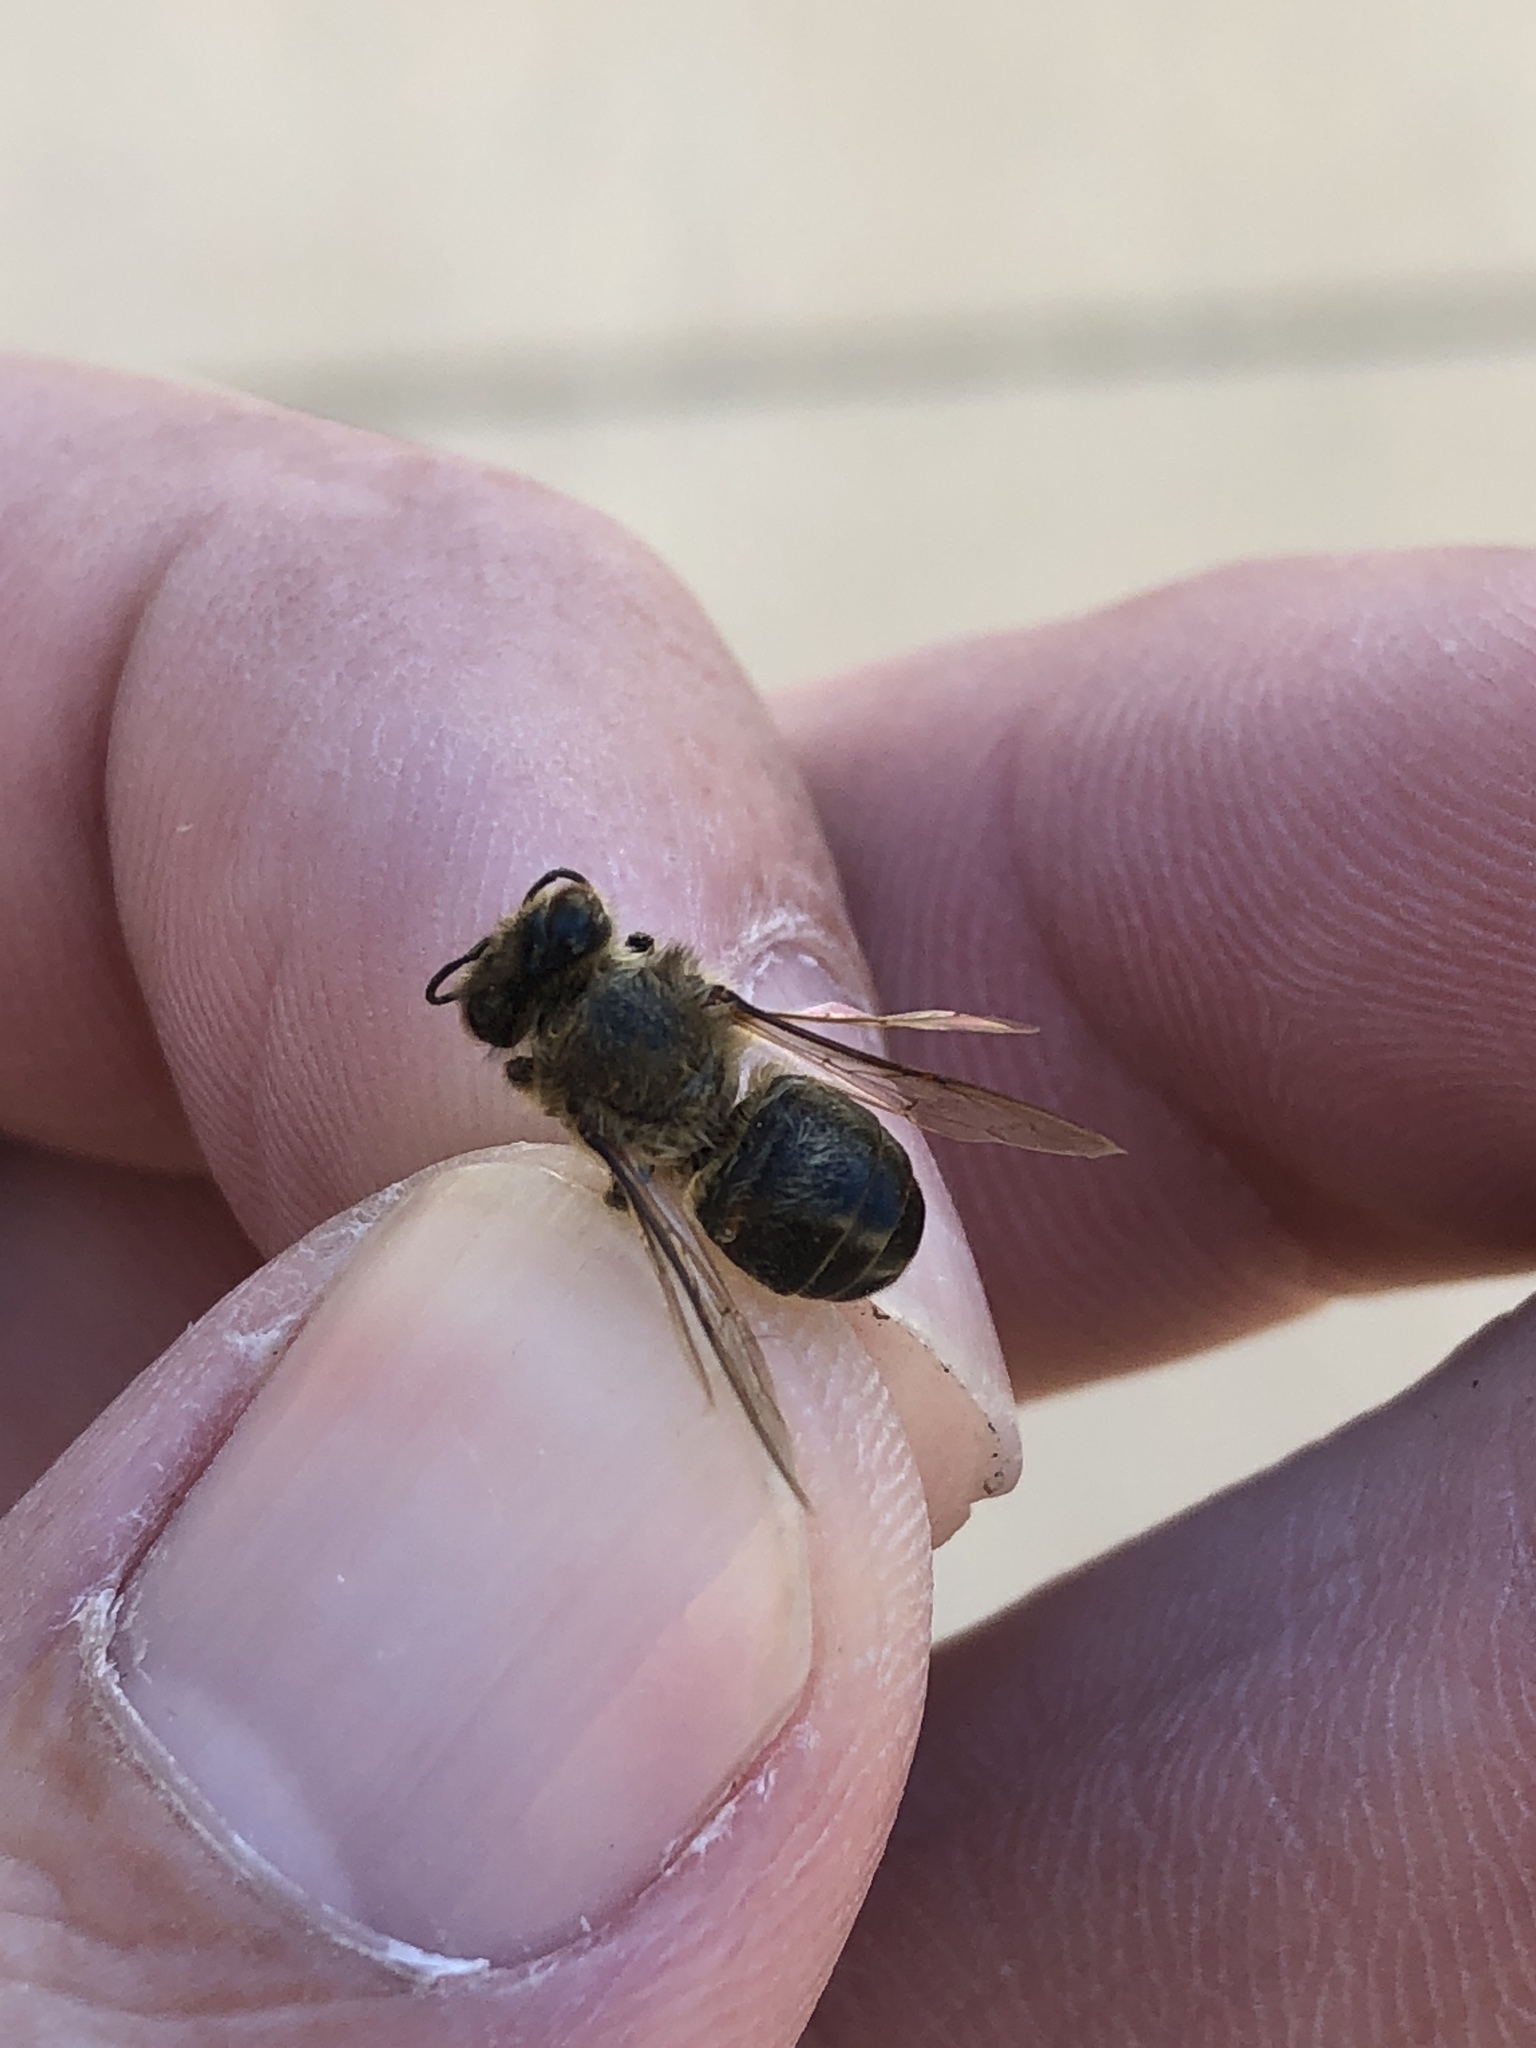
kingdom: Animalia
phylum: Arthropoda
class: Insecta
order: Hymenoptera
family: Apidae
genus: Apis
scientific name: Apis mellifera
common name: Honey bee
